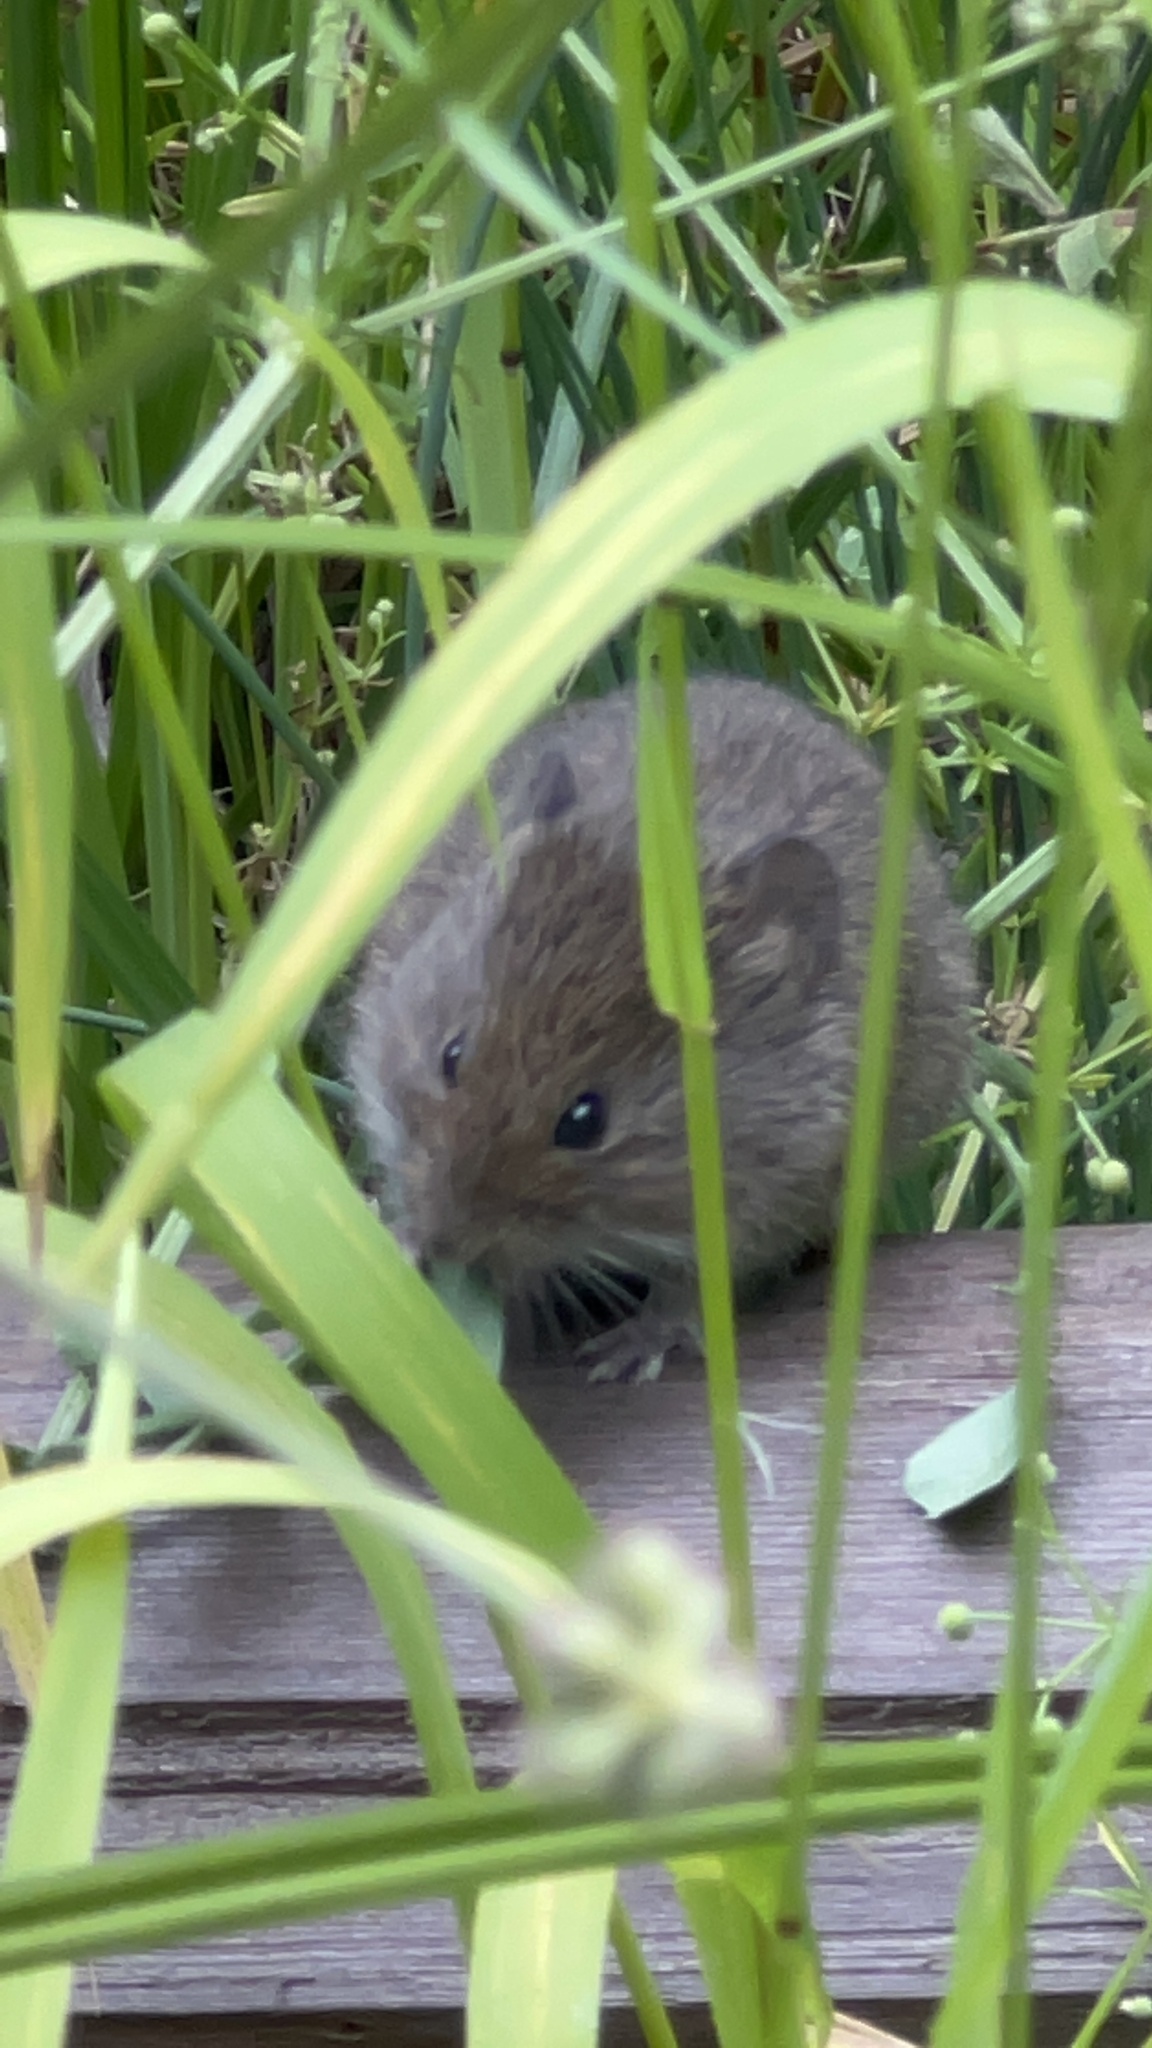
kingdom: Animalia
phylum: Chordata
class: Mammalia
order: Rodentia
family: Cricetidae
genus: Microtus
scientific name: Microtus californicus
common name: California vole
